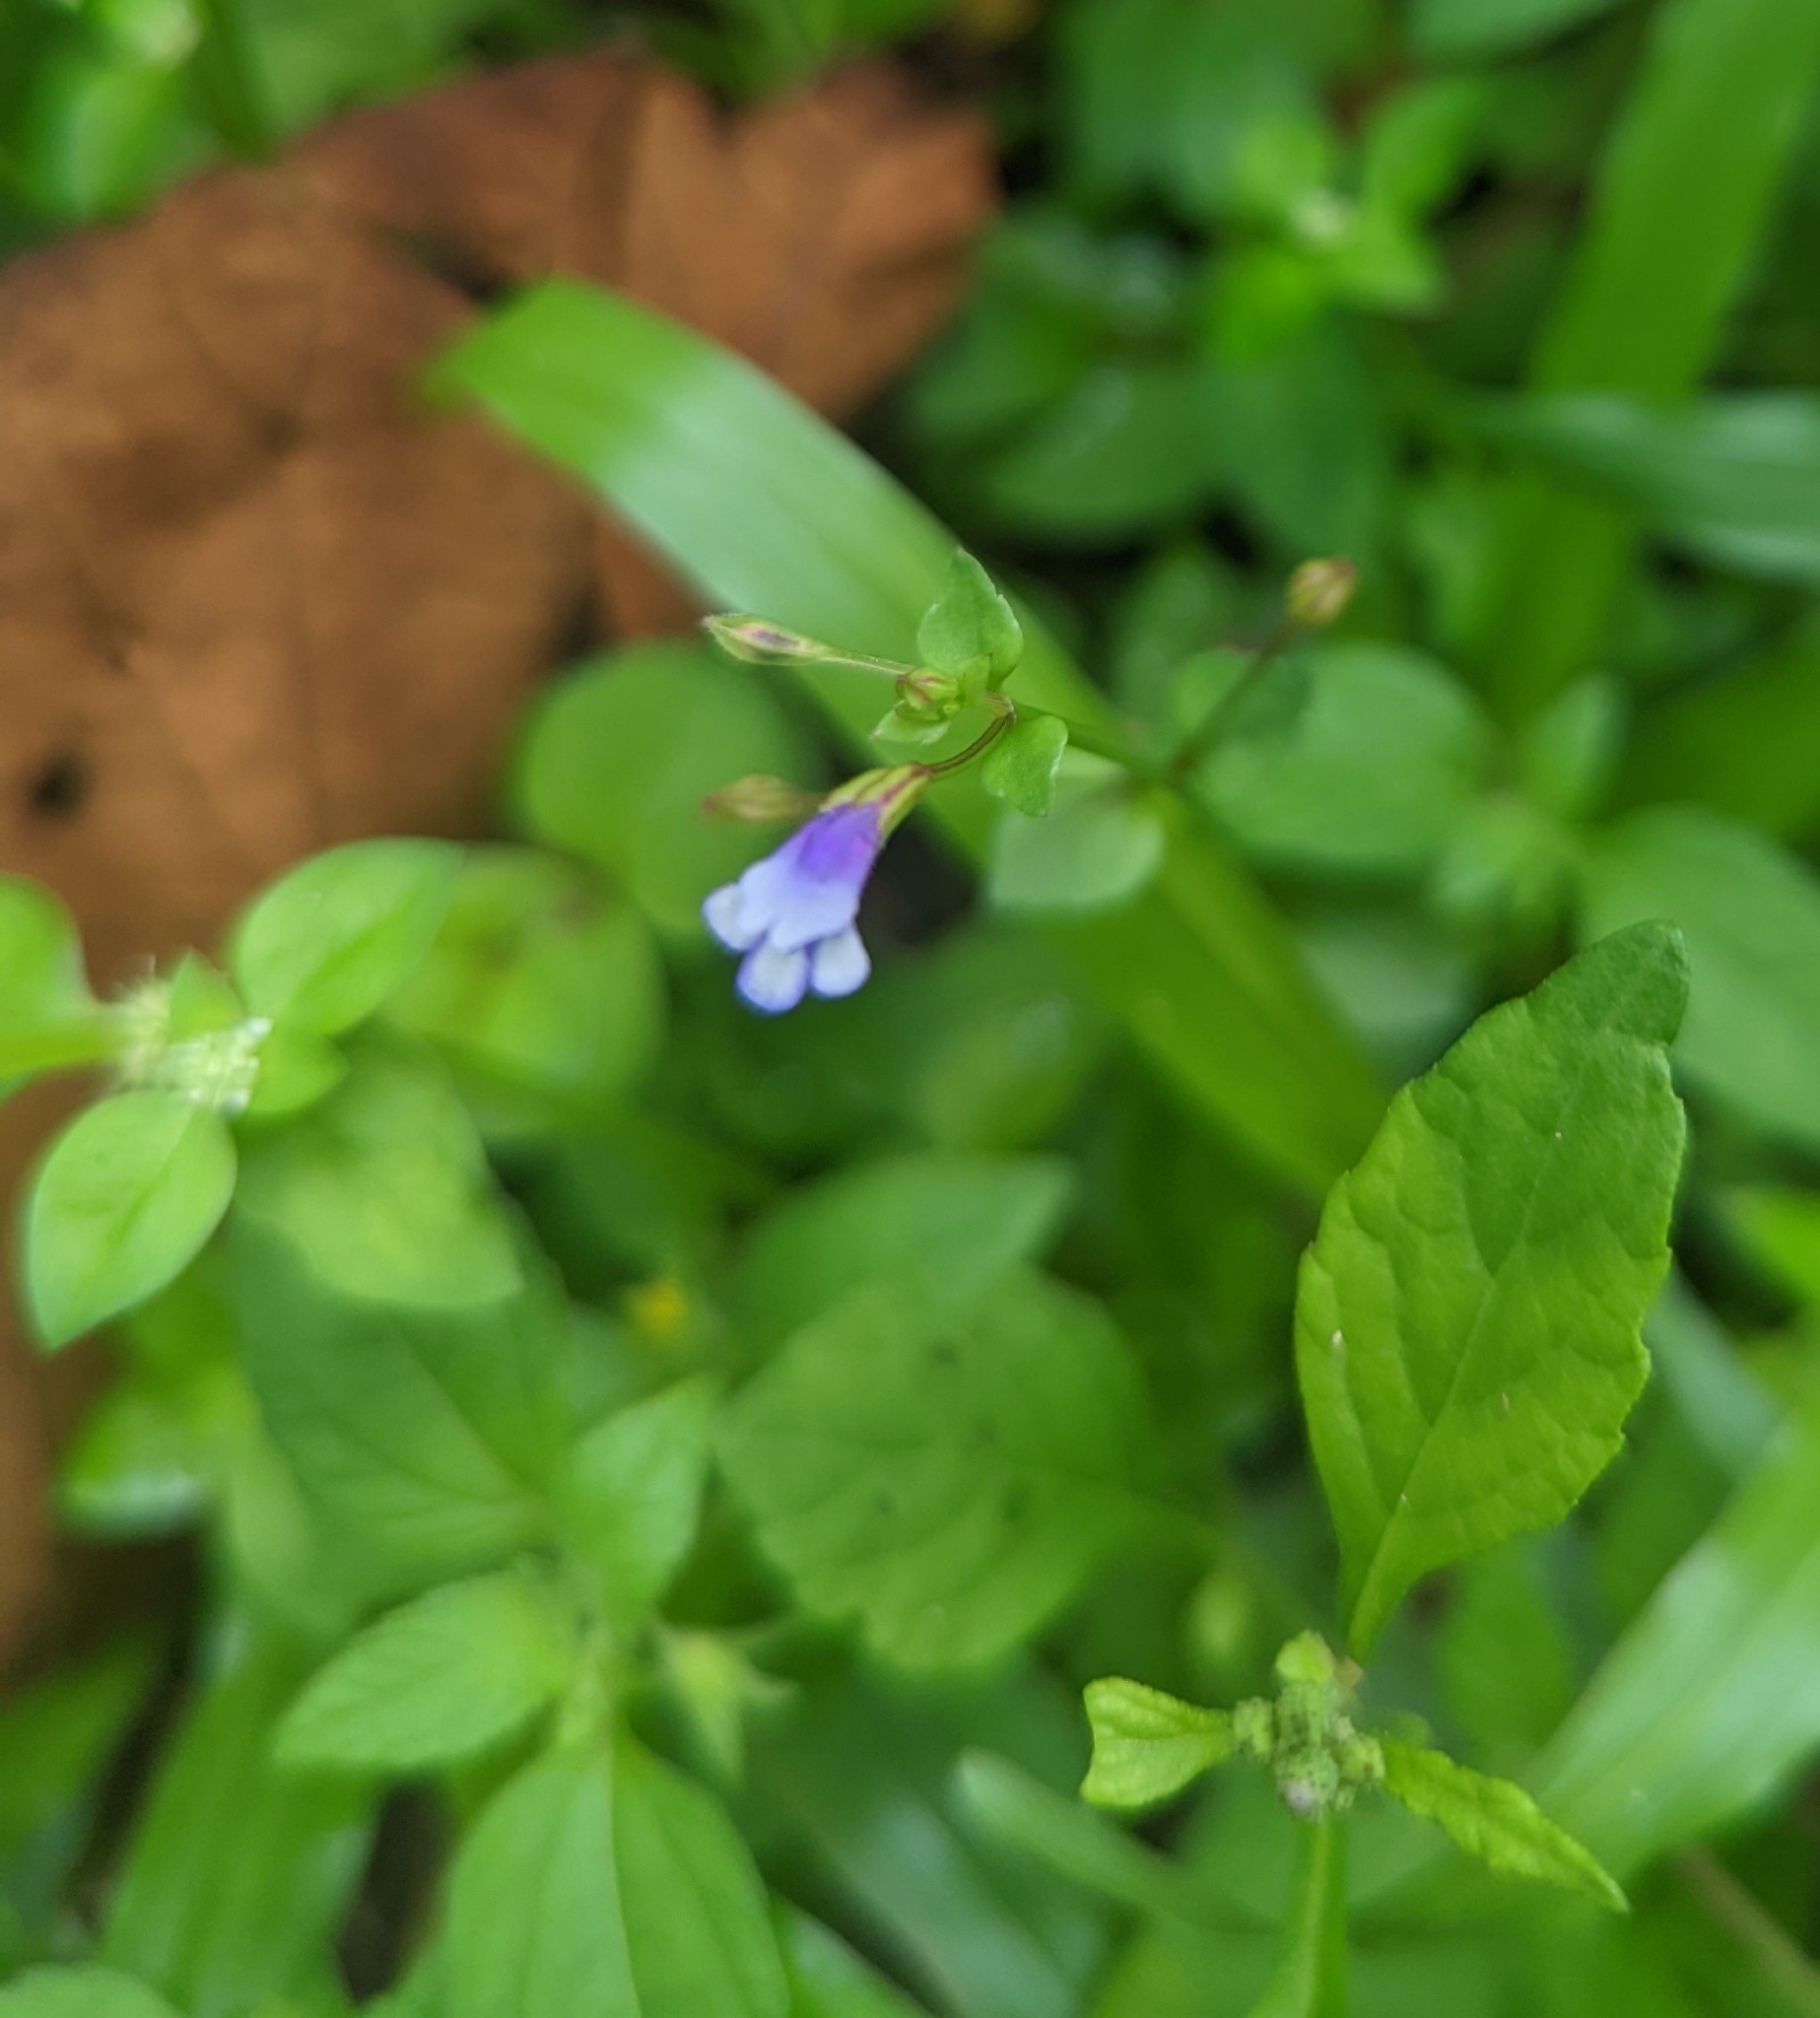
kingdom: Plantae
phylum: Tracheophyta
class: Magnoliopsida
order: Lamiales
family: Linderniaceae
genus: Torenia
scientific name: Torenia crustacea
